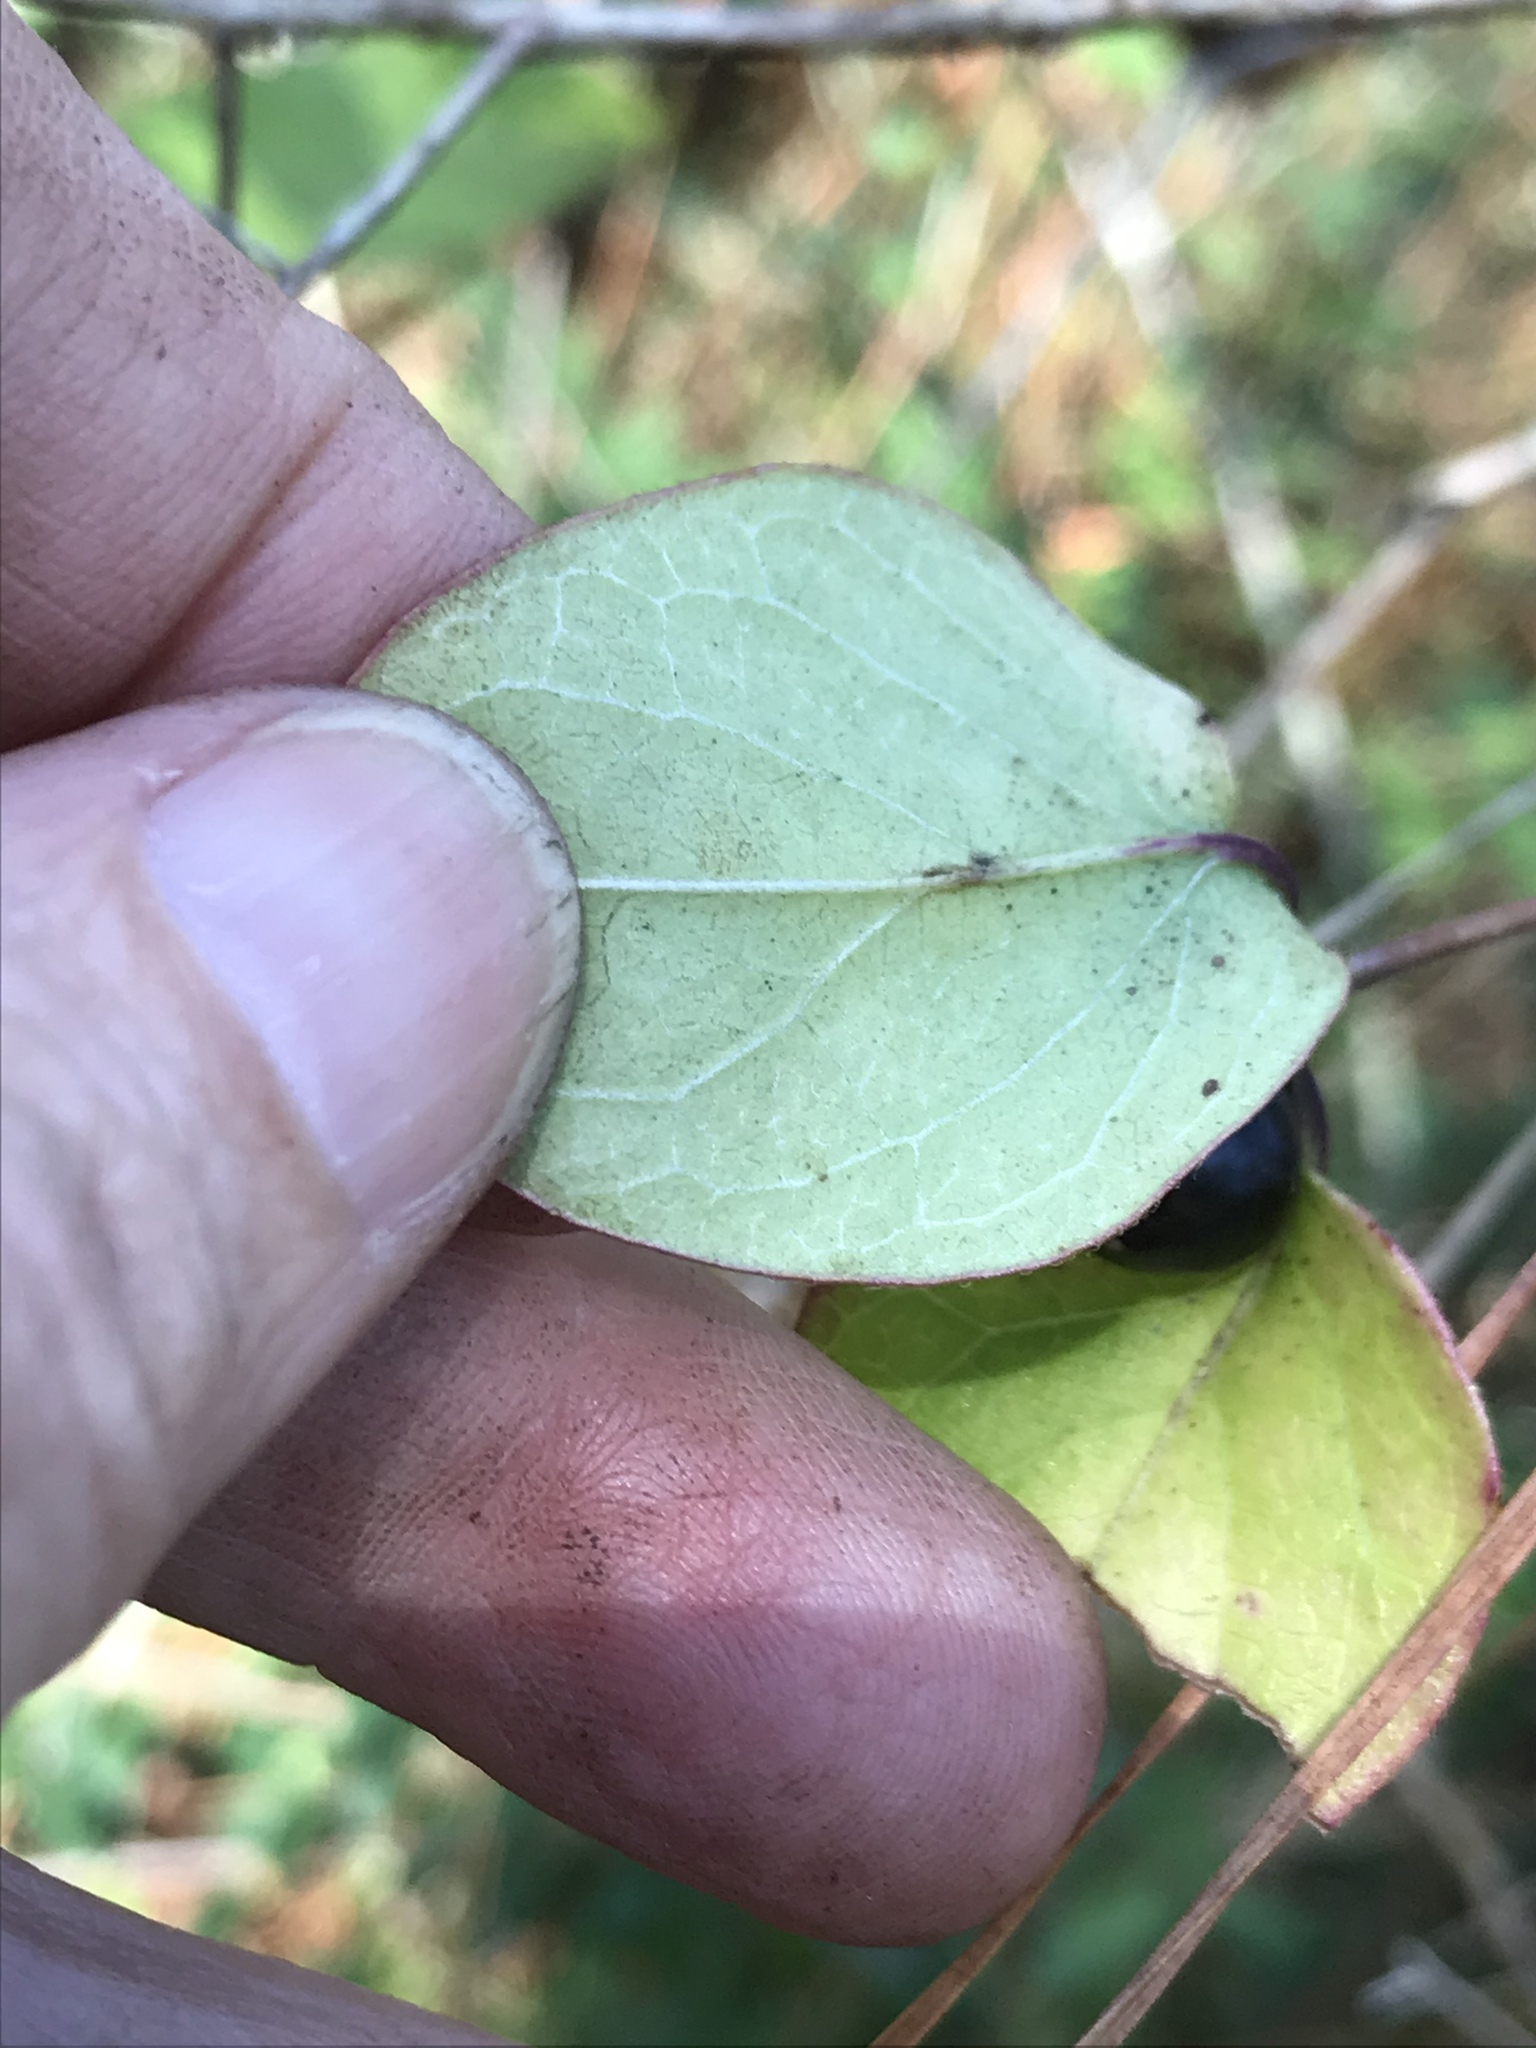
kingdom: Plantae
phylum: Tracheophyta
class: Magnoliopsida
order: Dipsacales
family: Caprifoliaceae
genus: Lonicera
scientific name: Lonicera japonica
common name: Japanese honeysuckle
